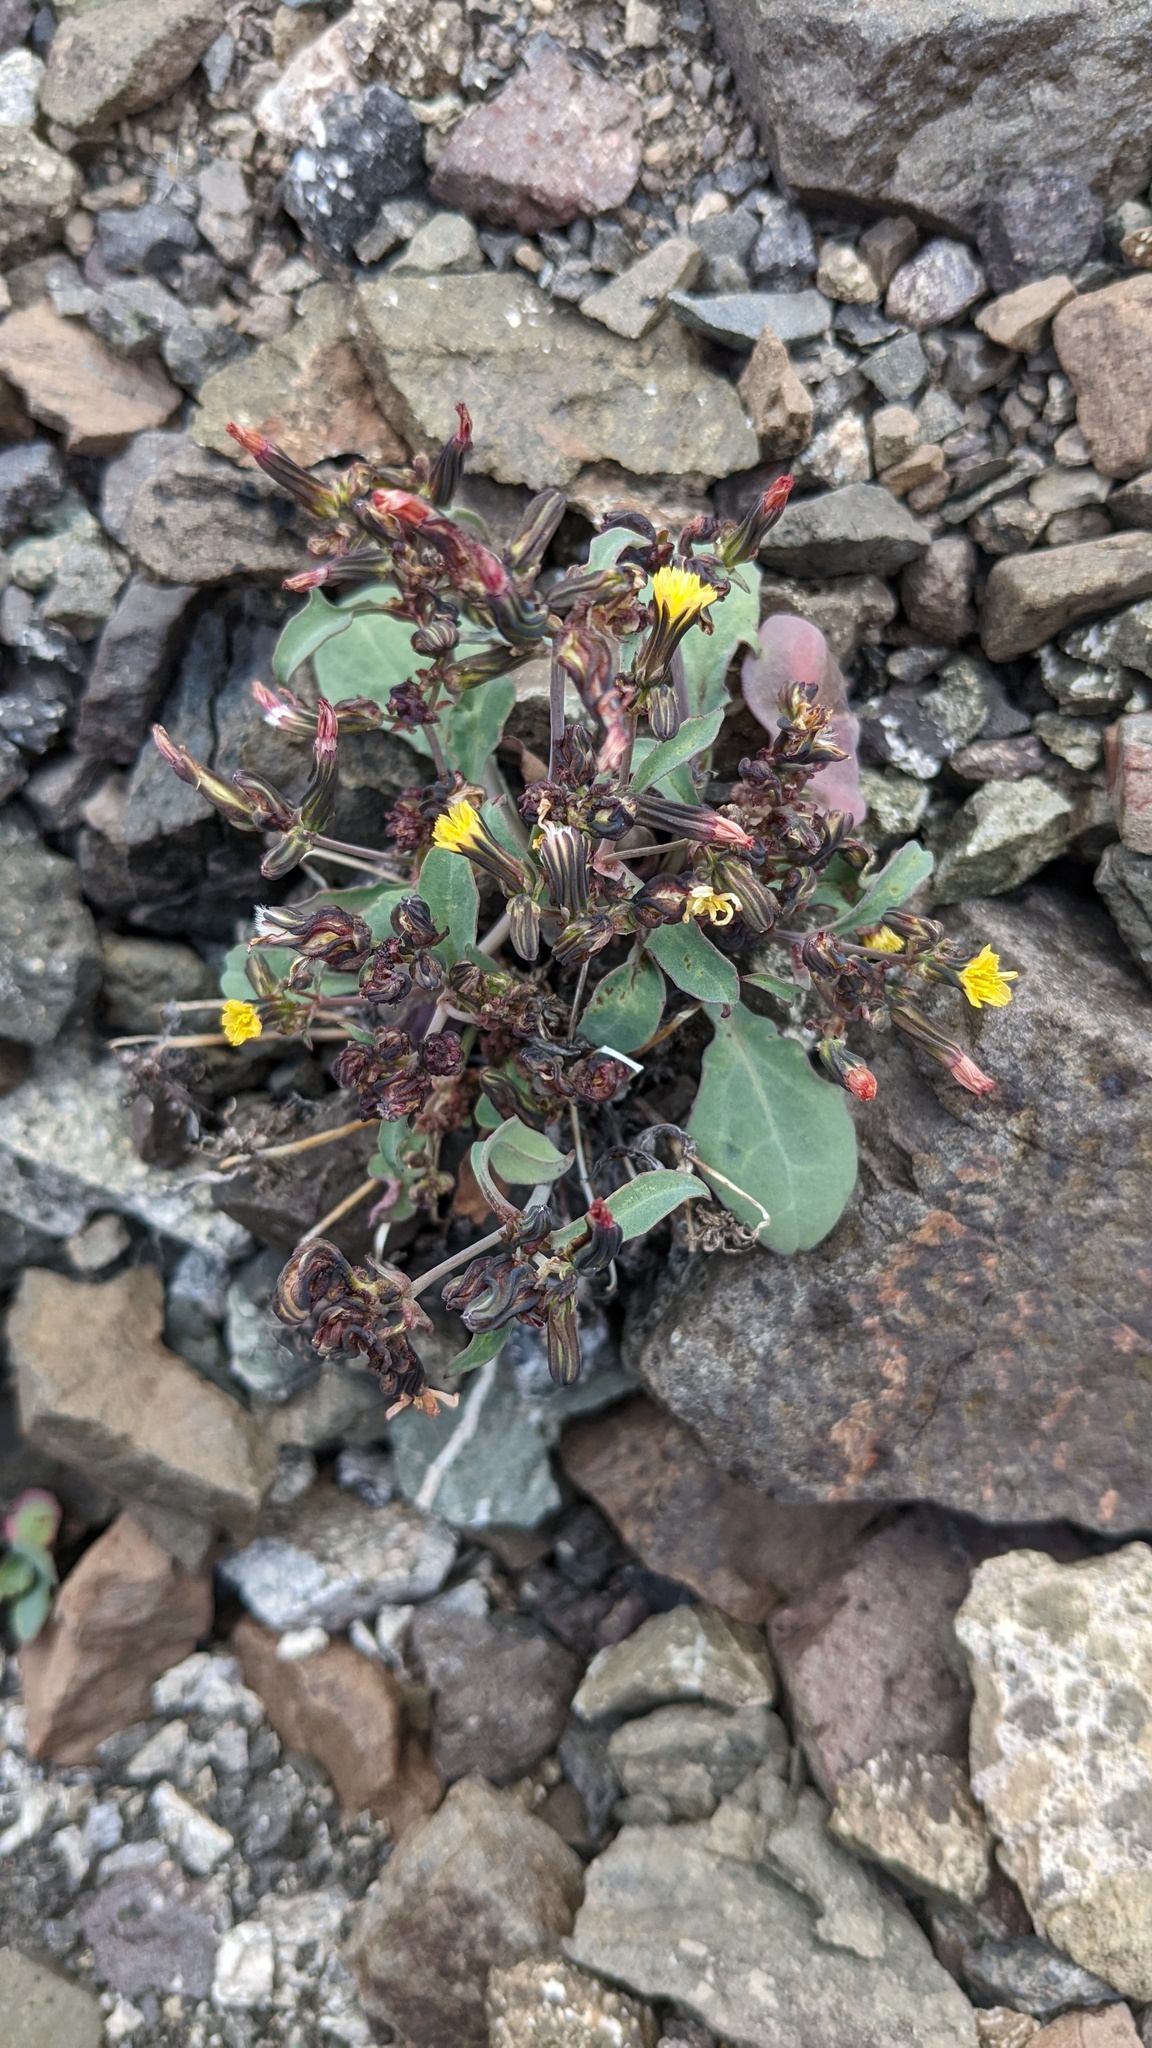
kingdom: Plantae
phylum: Tracheophyta
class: Magnoliopsida
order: Asterales
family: Asteraceae
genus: Askellia
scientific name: Askellia elegans
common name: Elegant hawksbeard
